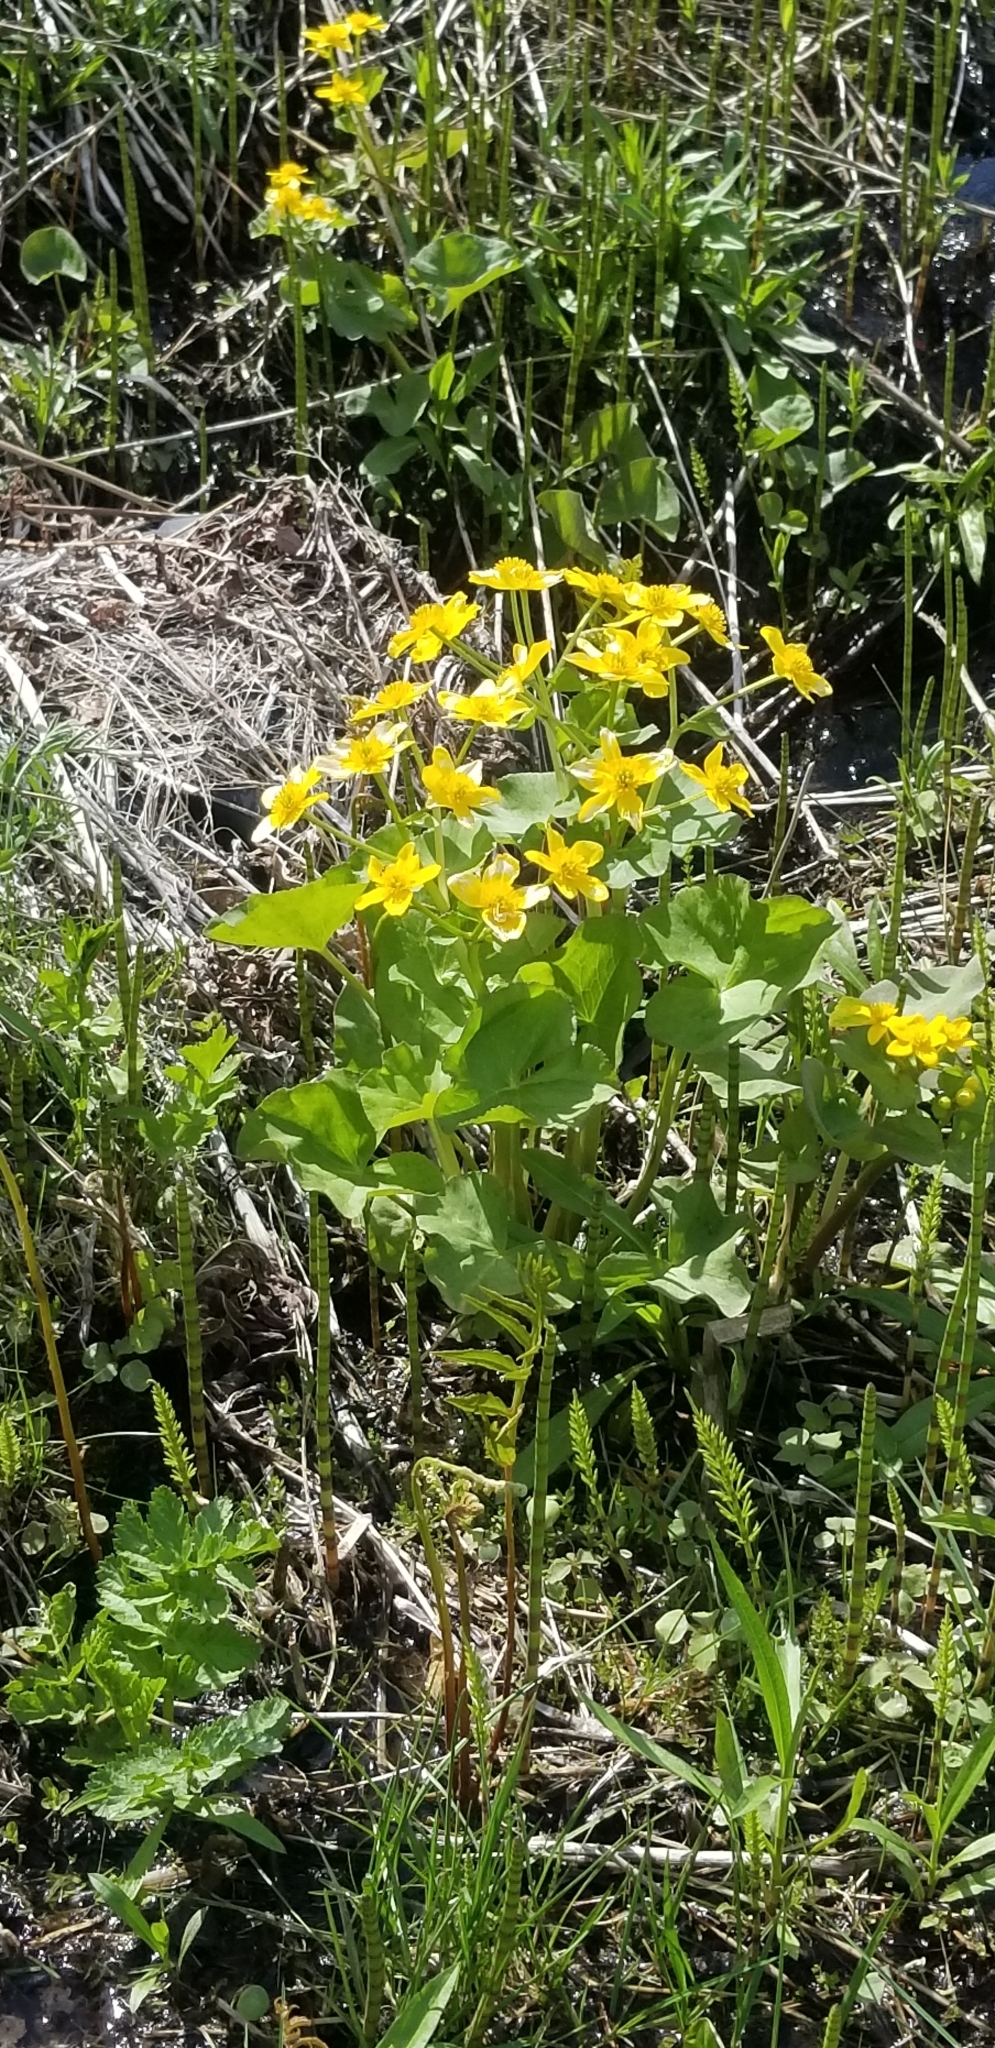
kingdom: Plantae
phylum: Tracheophyta
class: Magnoliopsida
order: Ranunculales
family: Ranunculaceae
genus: Caltha
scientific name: Caltha palustris
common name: Marsh marigold
